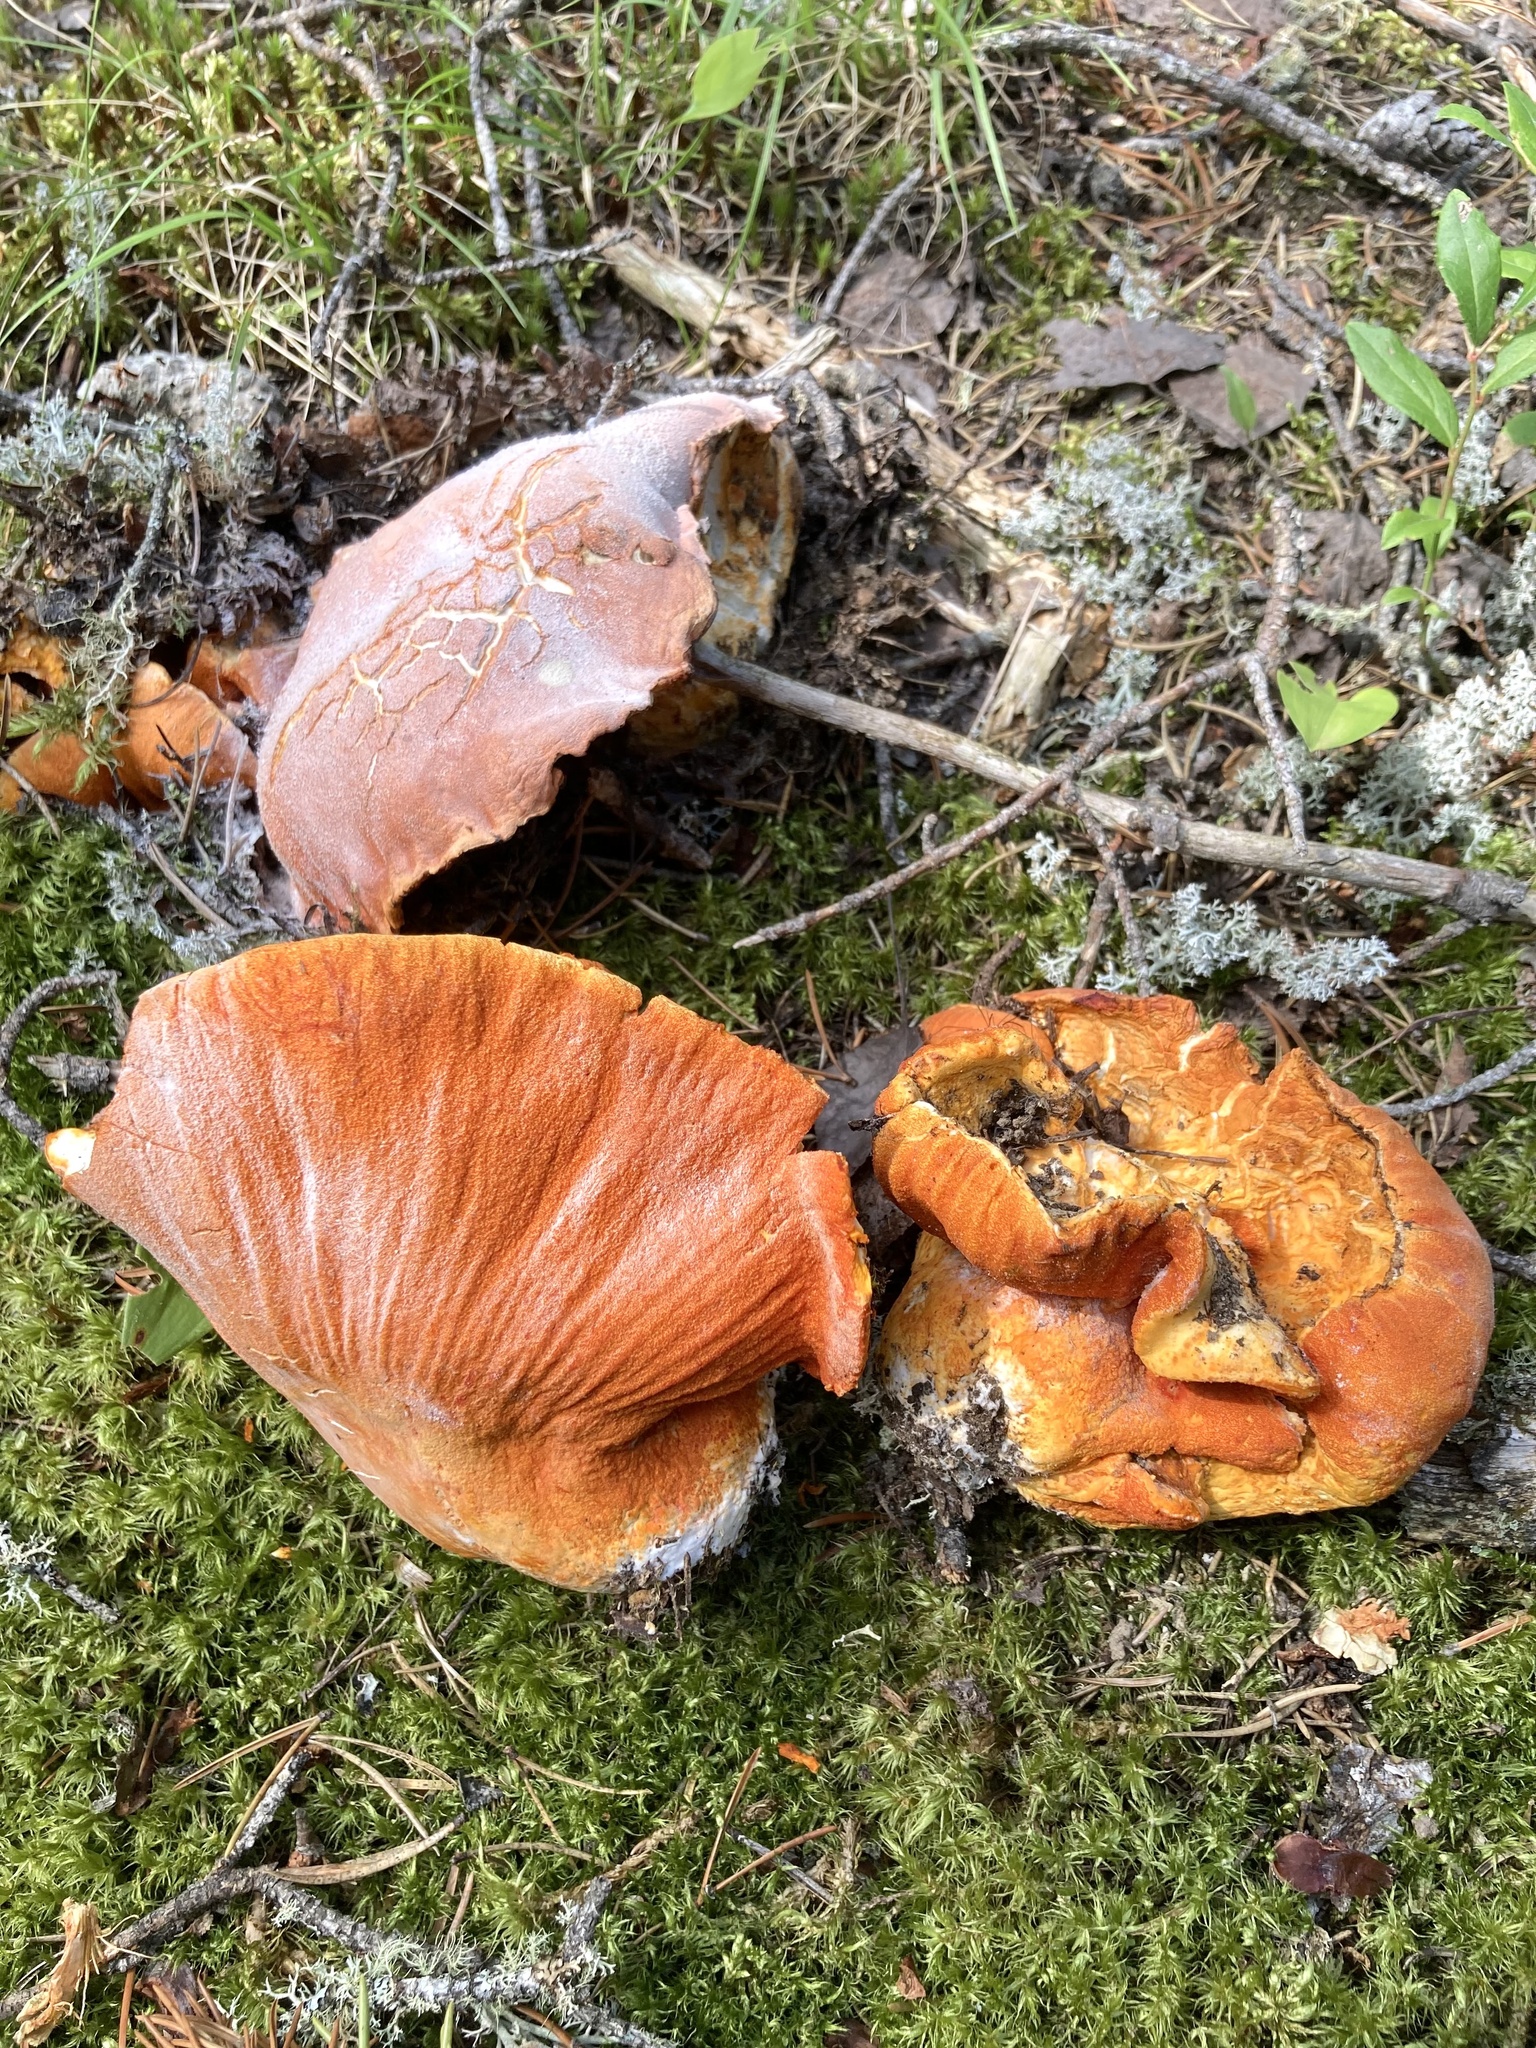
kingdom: Fungi
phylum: Ascomycota
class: Sordariomycetes
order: Hypocreales
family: Hypocreaceae
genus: Hypomyces
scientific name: Hypomyces lactifluorum
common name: Lobster mushroom
